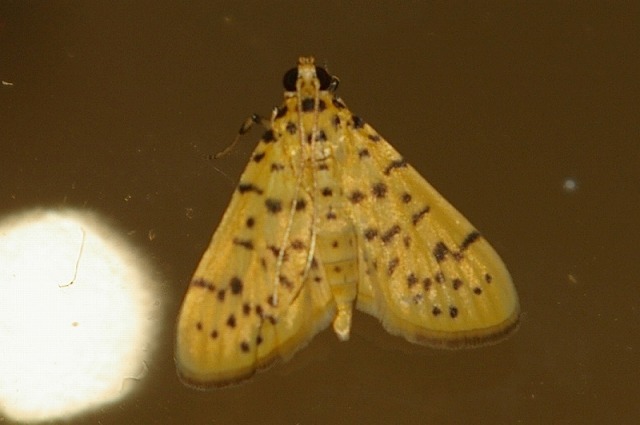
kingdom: Animalia
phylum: Arthropoda
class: Insecta
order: Lepidoptera
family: Crambidae
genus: Conogethes
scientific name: Conogethes punctiferalis
